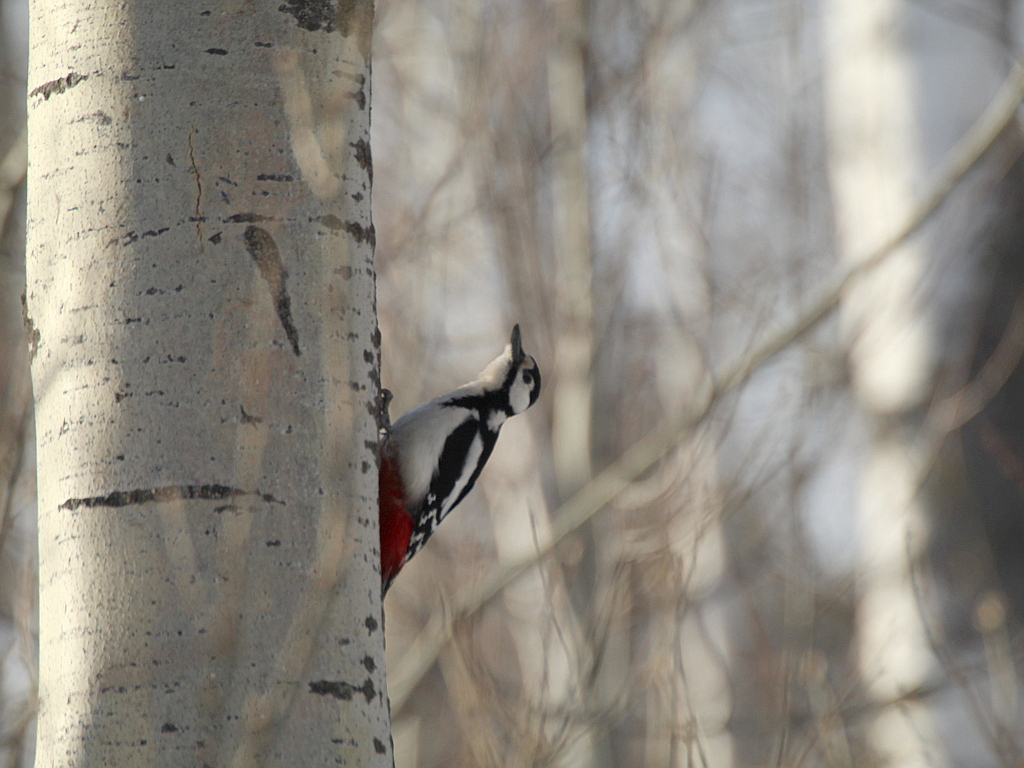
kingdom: Animalia
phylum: Chordata
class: Aves
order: Piciformes
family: Picidae
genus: Dendrocopos
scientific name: Dendrocopos major
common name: Great spotted woodpecker
